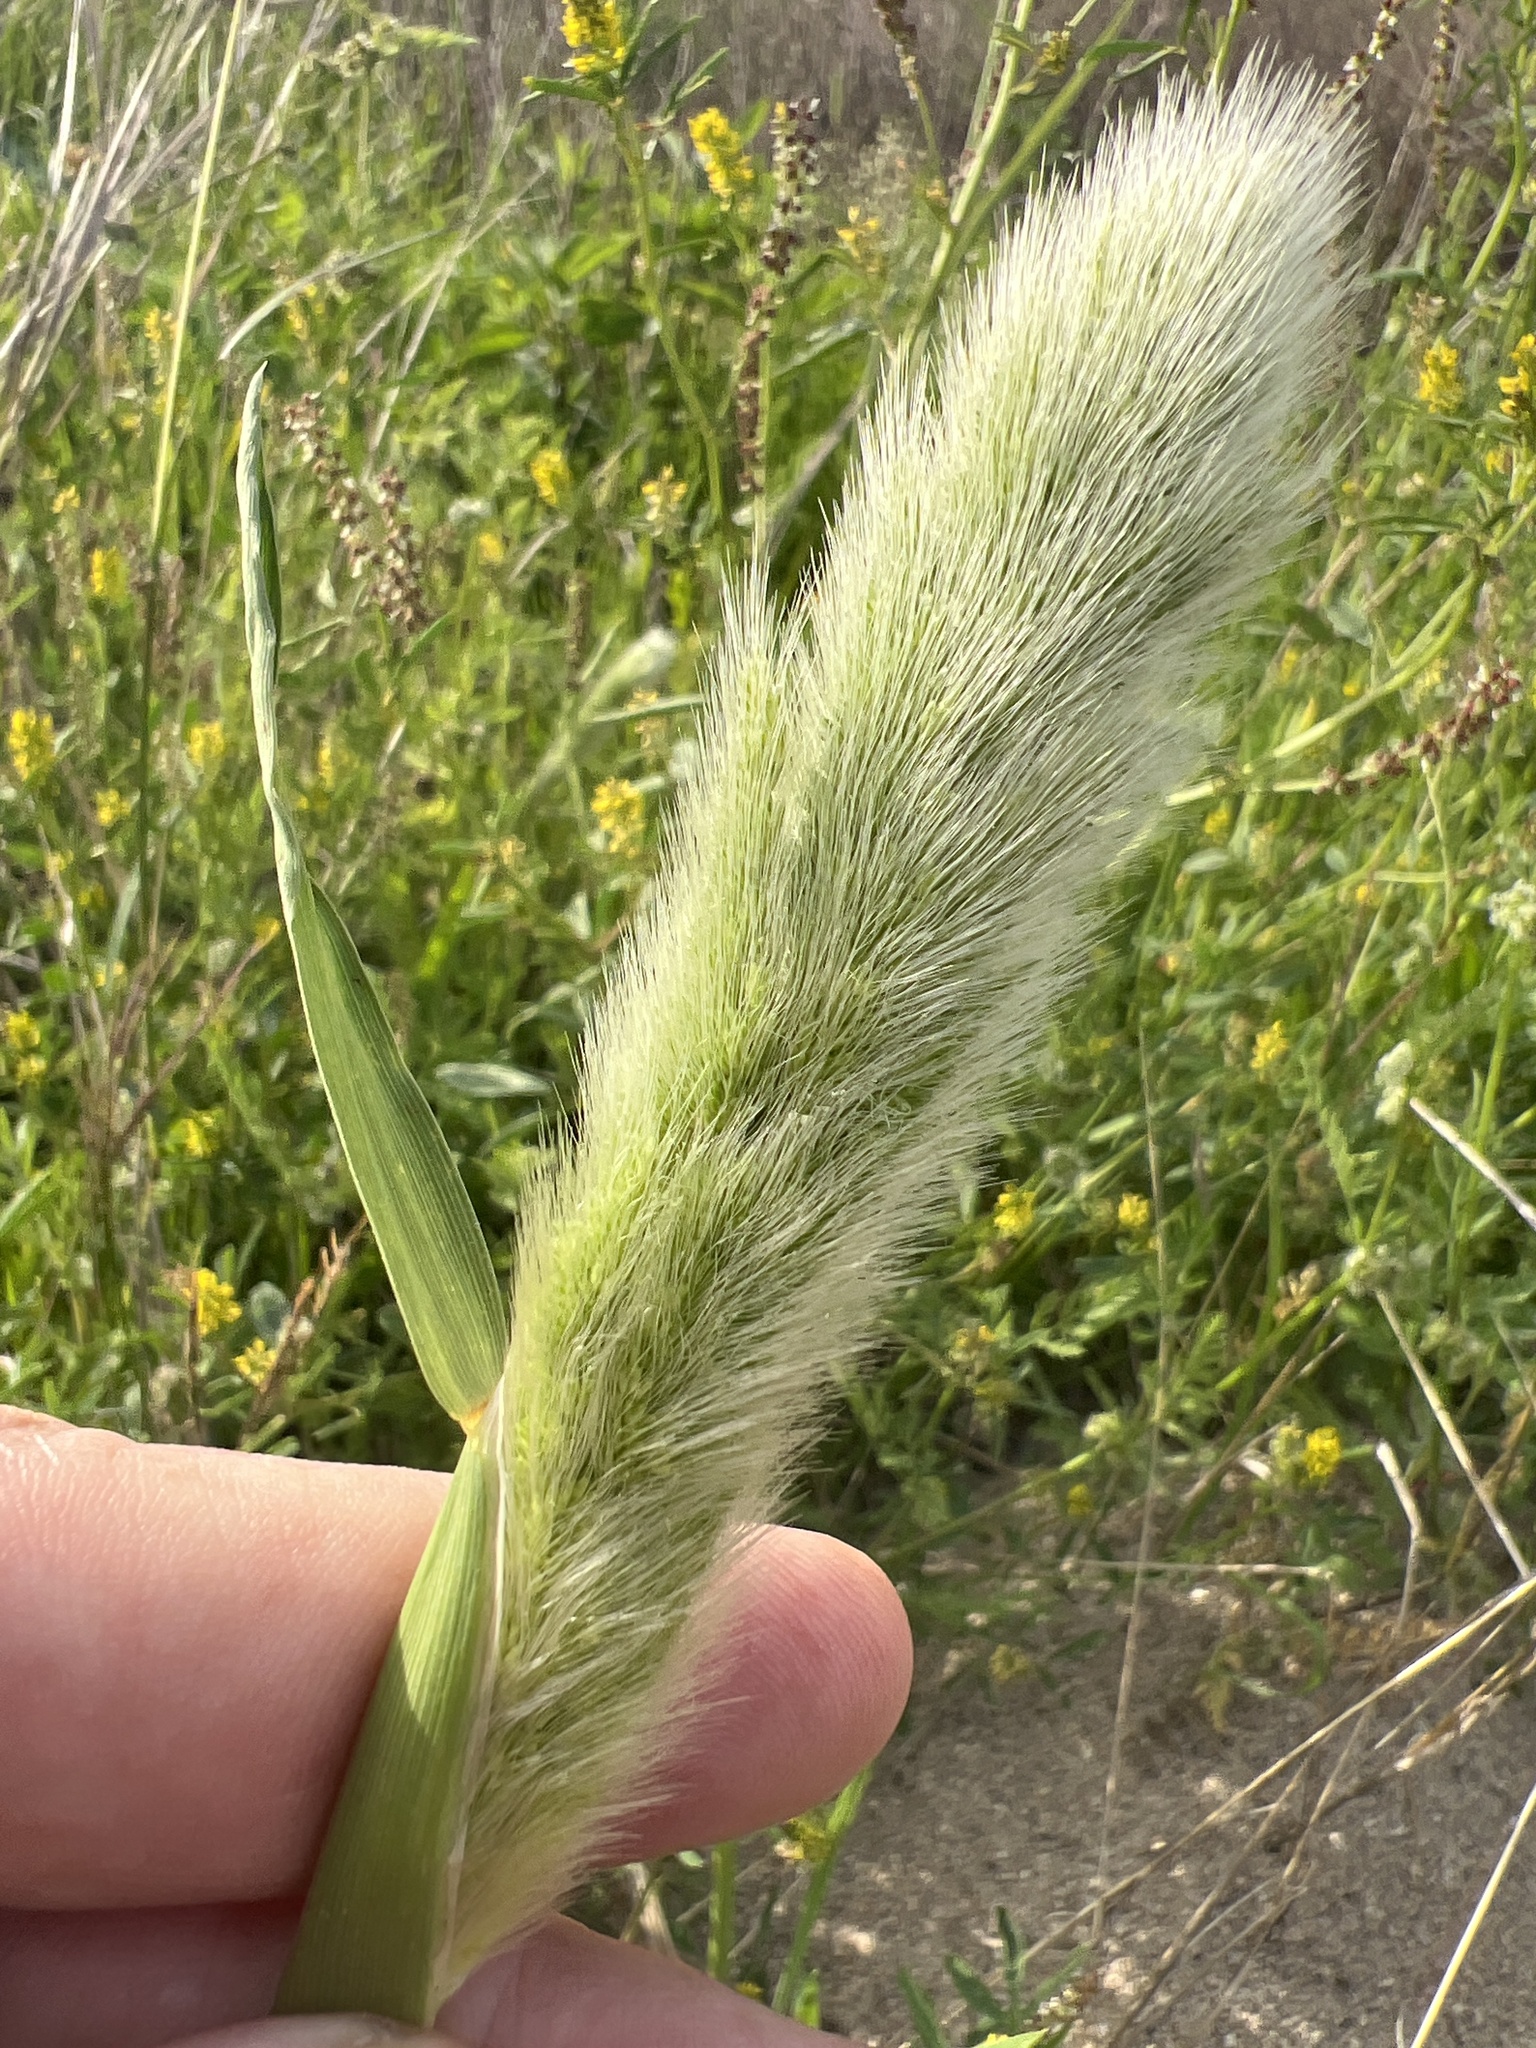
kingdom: Plantae
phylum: Tracheophyta
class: Liliopsida
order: Poales
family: Poaceae
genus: Polypogon
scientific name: Polypogon monspeliensis
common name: Annual rabbitsfoot grass
